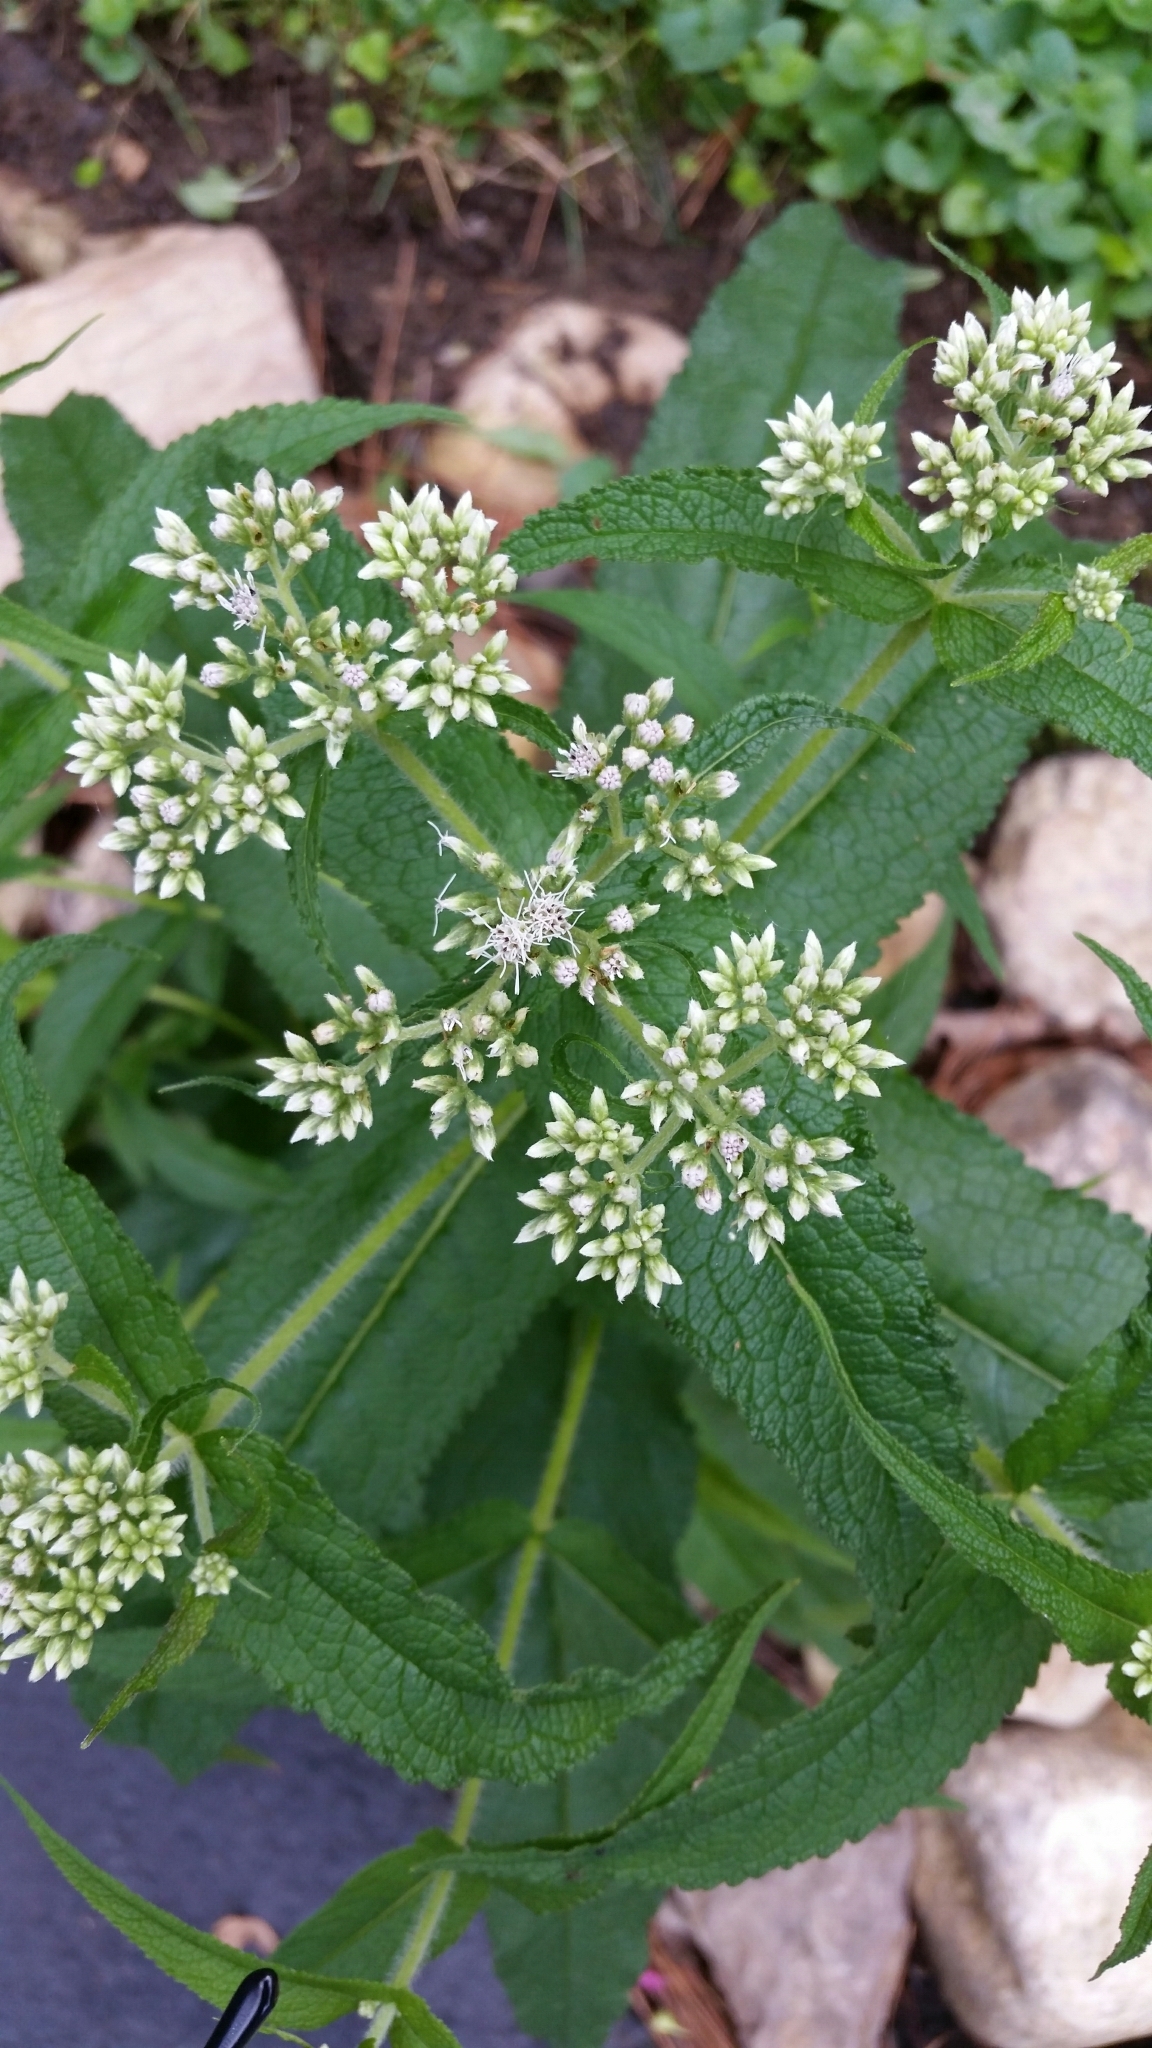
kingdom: Plantae
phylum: Tracheophyta
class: Magnoliopsida
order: Asterales
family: Asteraceae
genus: Eupatorium
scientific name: Eupatorium perfoliatum
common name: Boneset
